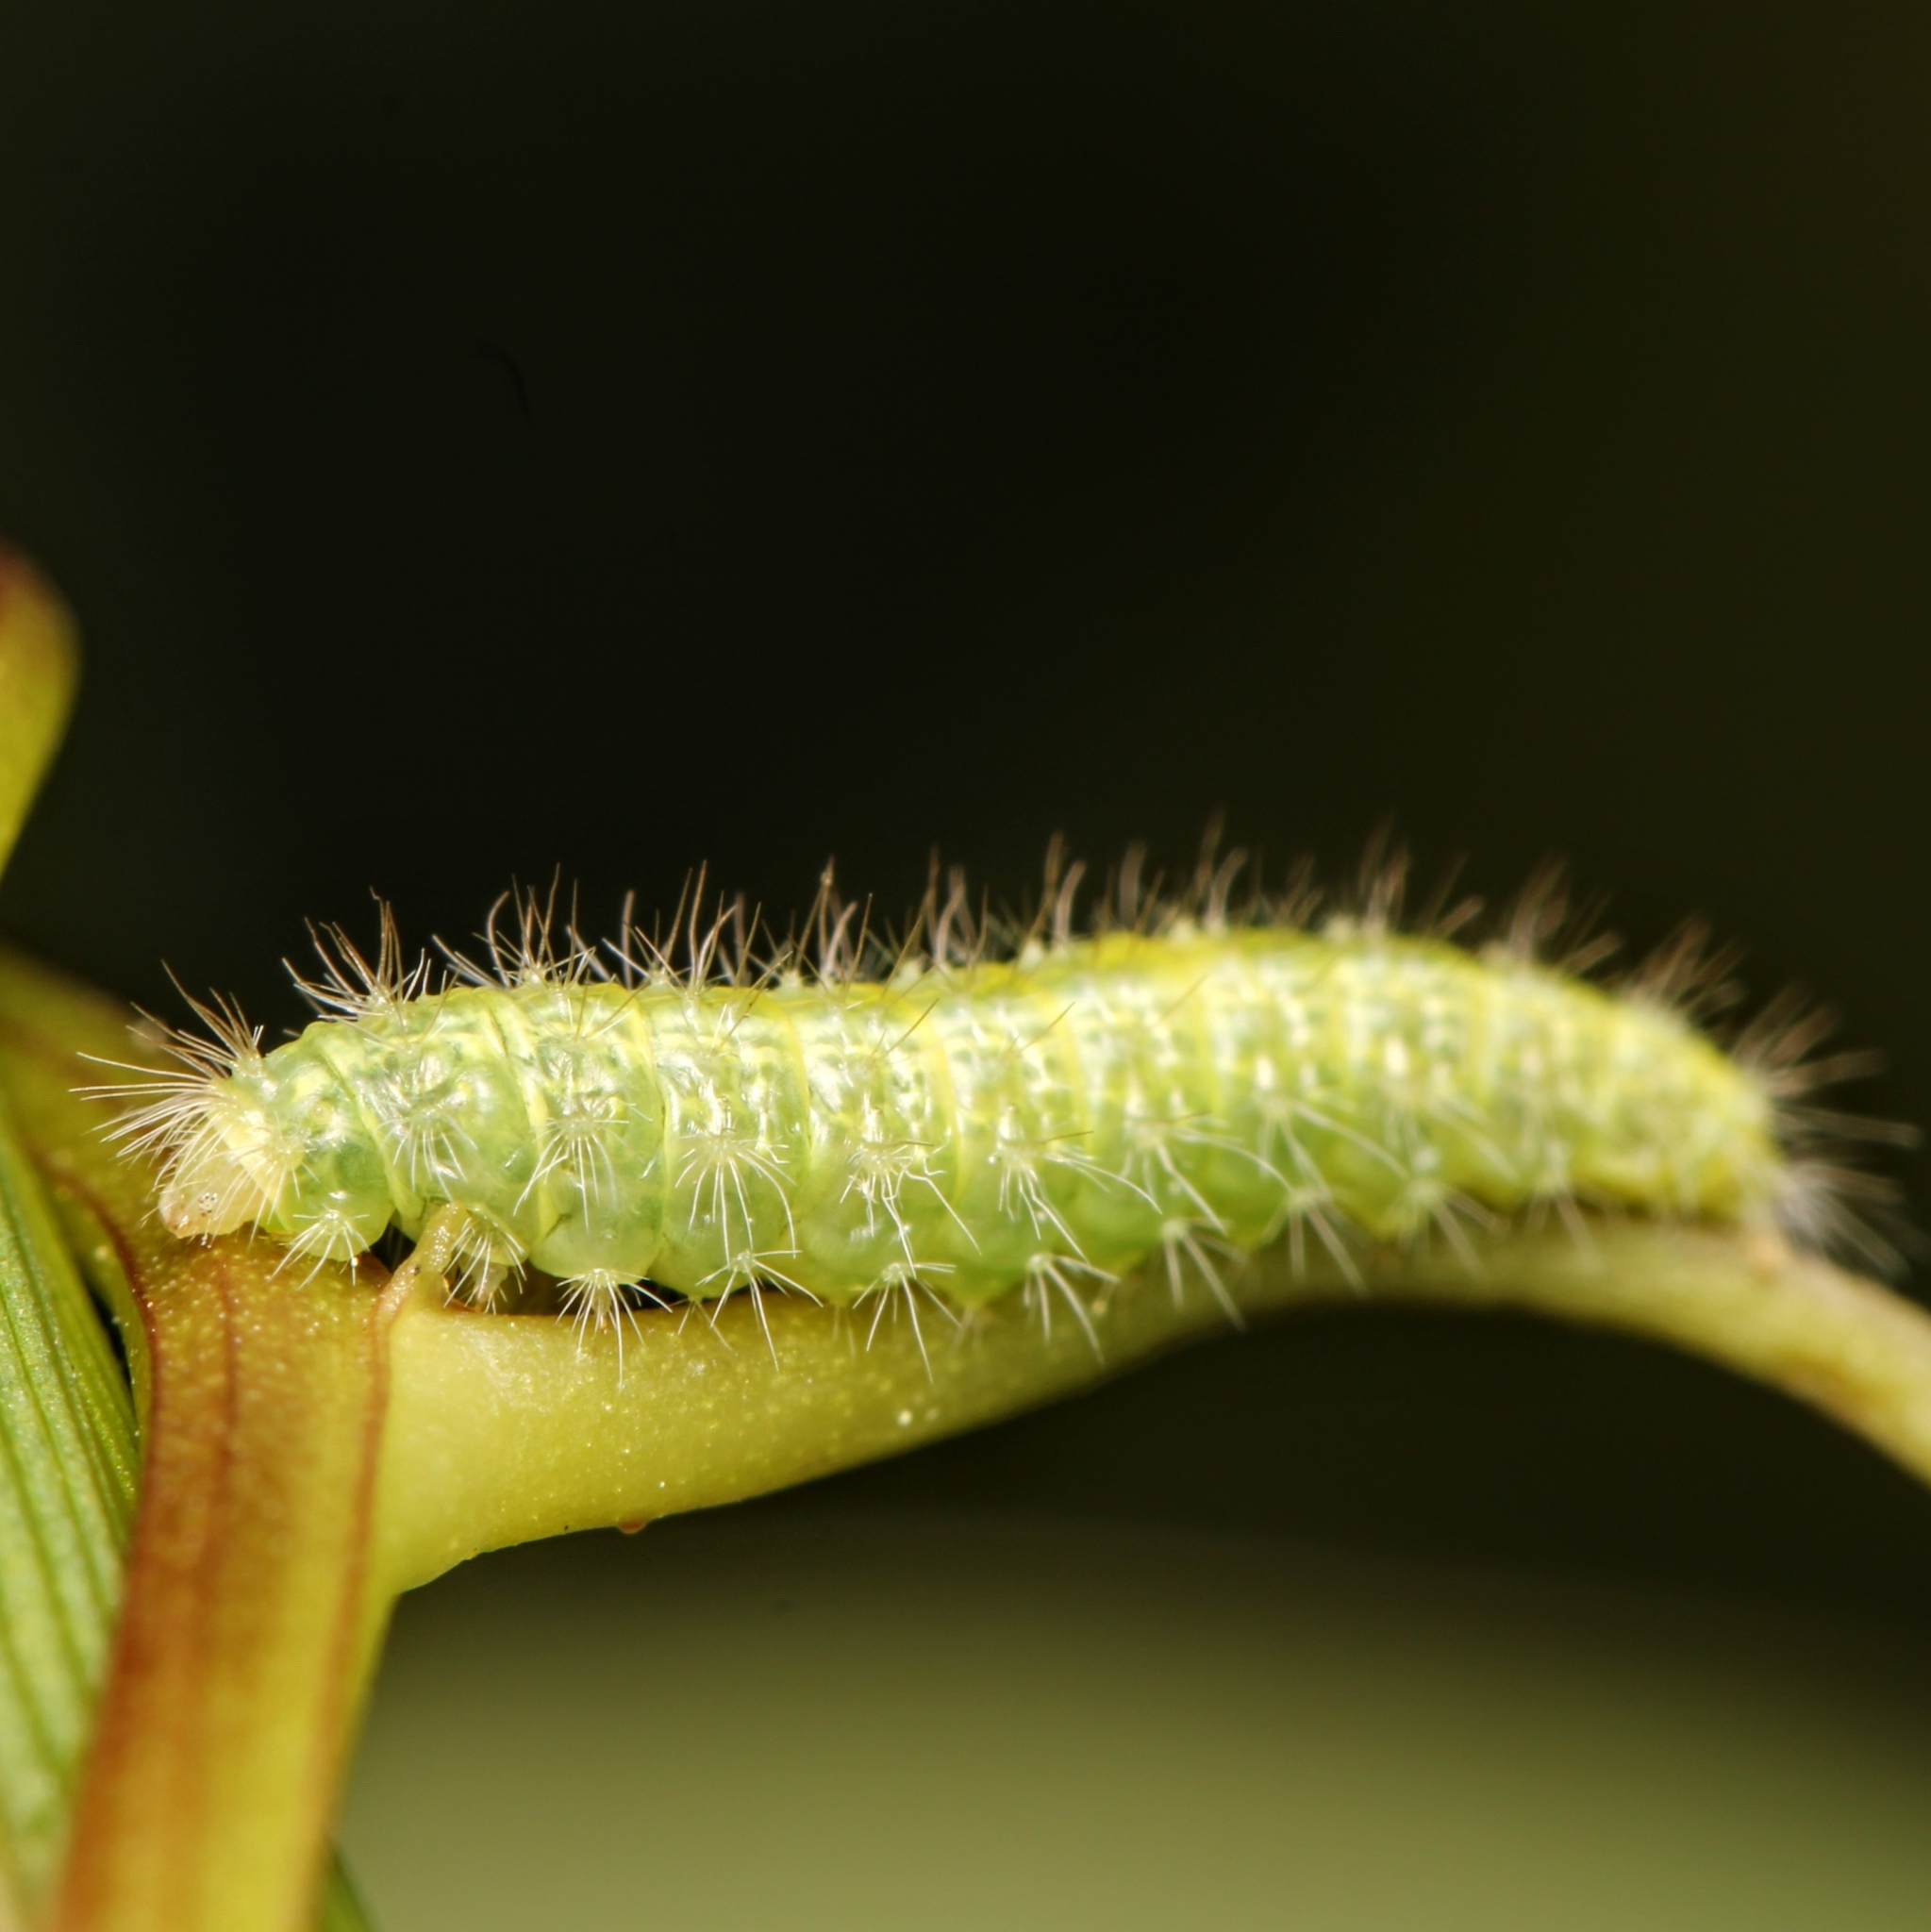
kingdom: Animalia
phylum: Arthropoda
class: Insecta
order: Lepidoptera
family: Pterophoridae
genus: Emmelina
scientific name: Emmelina monodactyla
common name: Common plume
